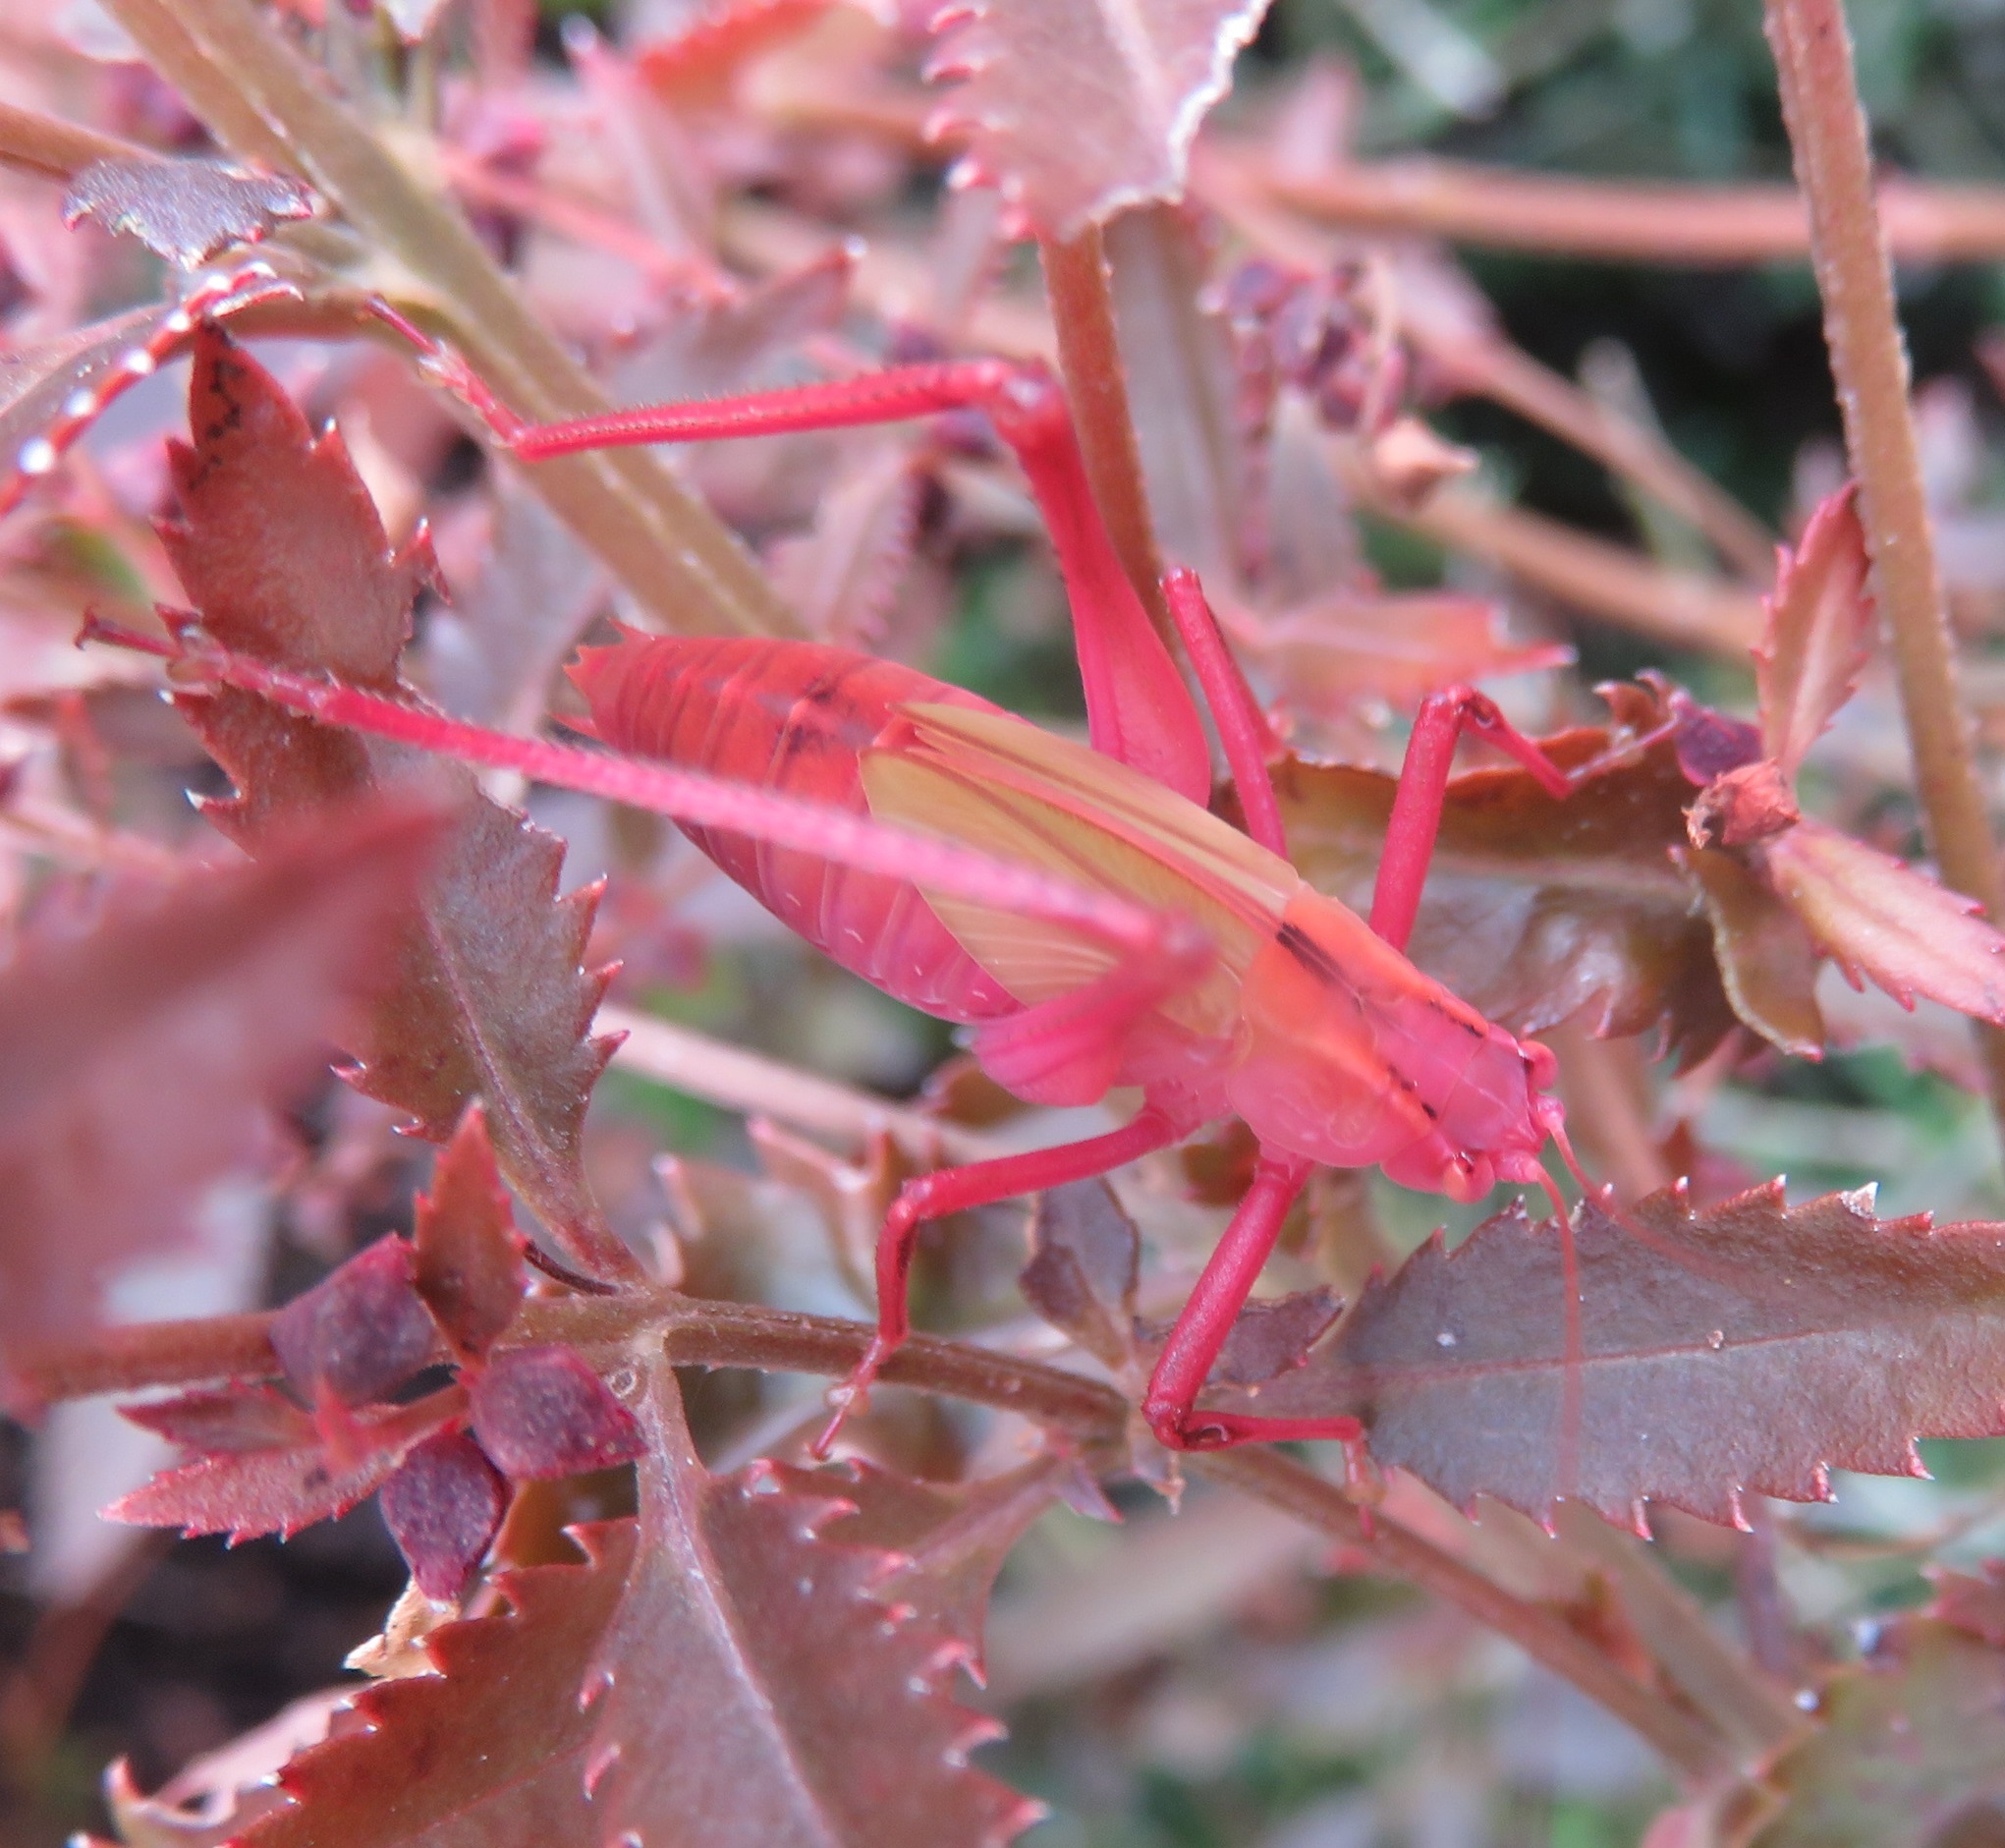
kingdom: Animalia
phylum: Arthropoda
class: Insecta
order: Orthoptera
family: Tettigoniidae
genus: Caedicia
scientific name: Caedicia simplex
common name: Common garden katydid
